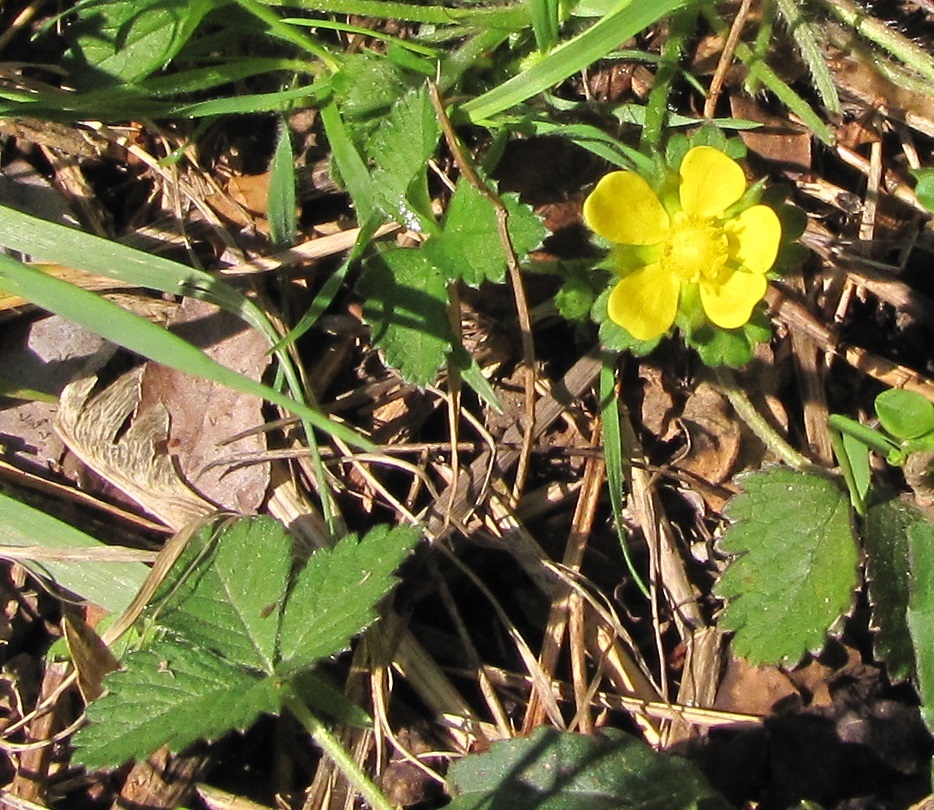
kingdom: Plantae
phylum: Tracheophyta
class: Magnoliopsida
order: Rosales
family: Rosaceae
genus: Potentilla
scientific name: Potentilla indica
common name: Yellow-flowered strawberry
